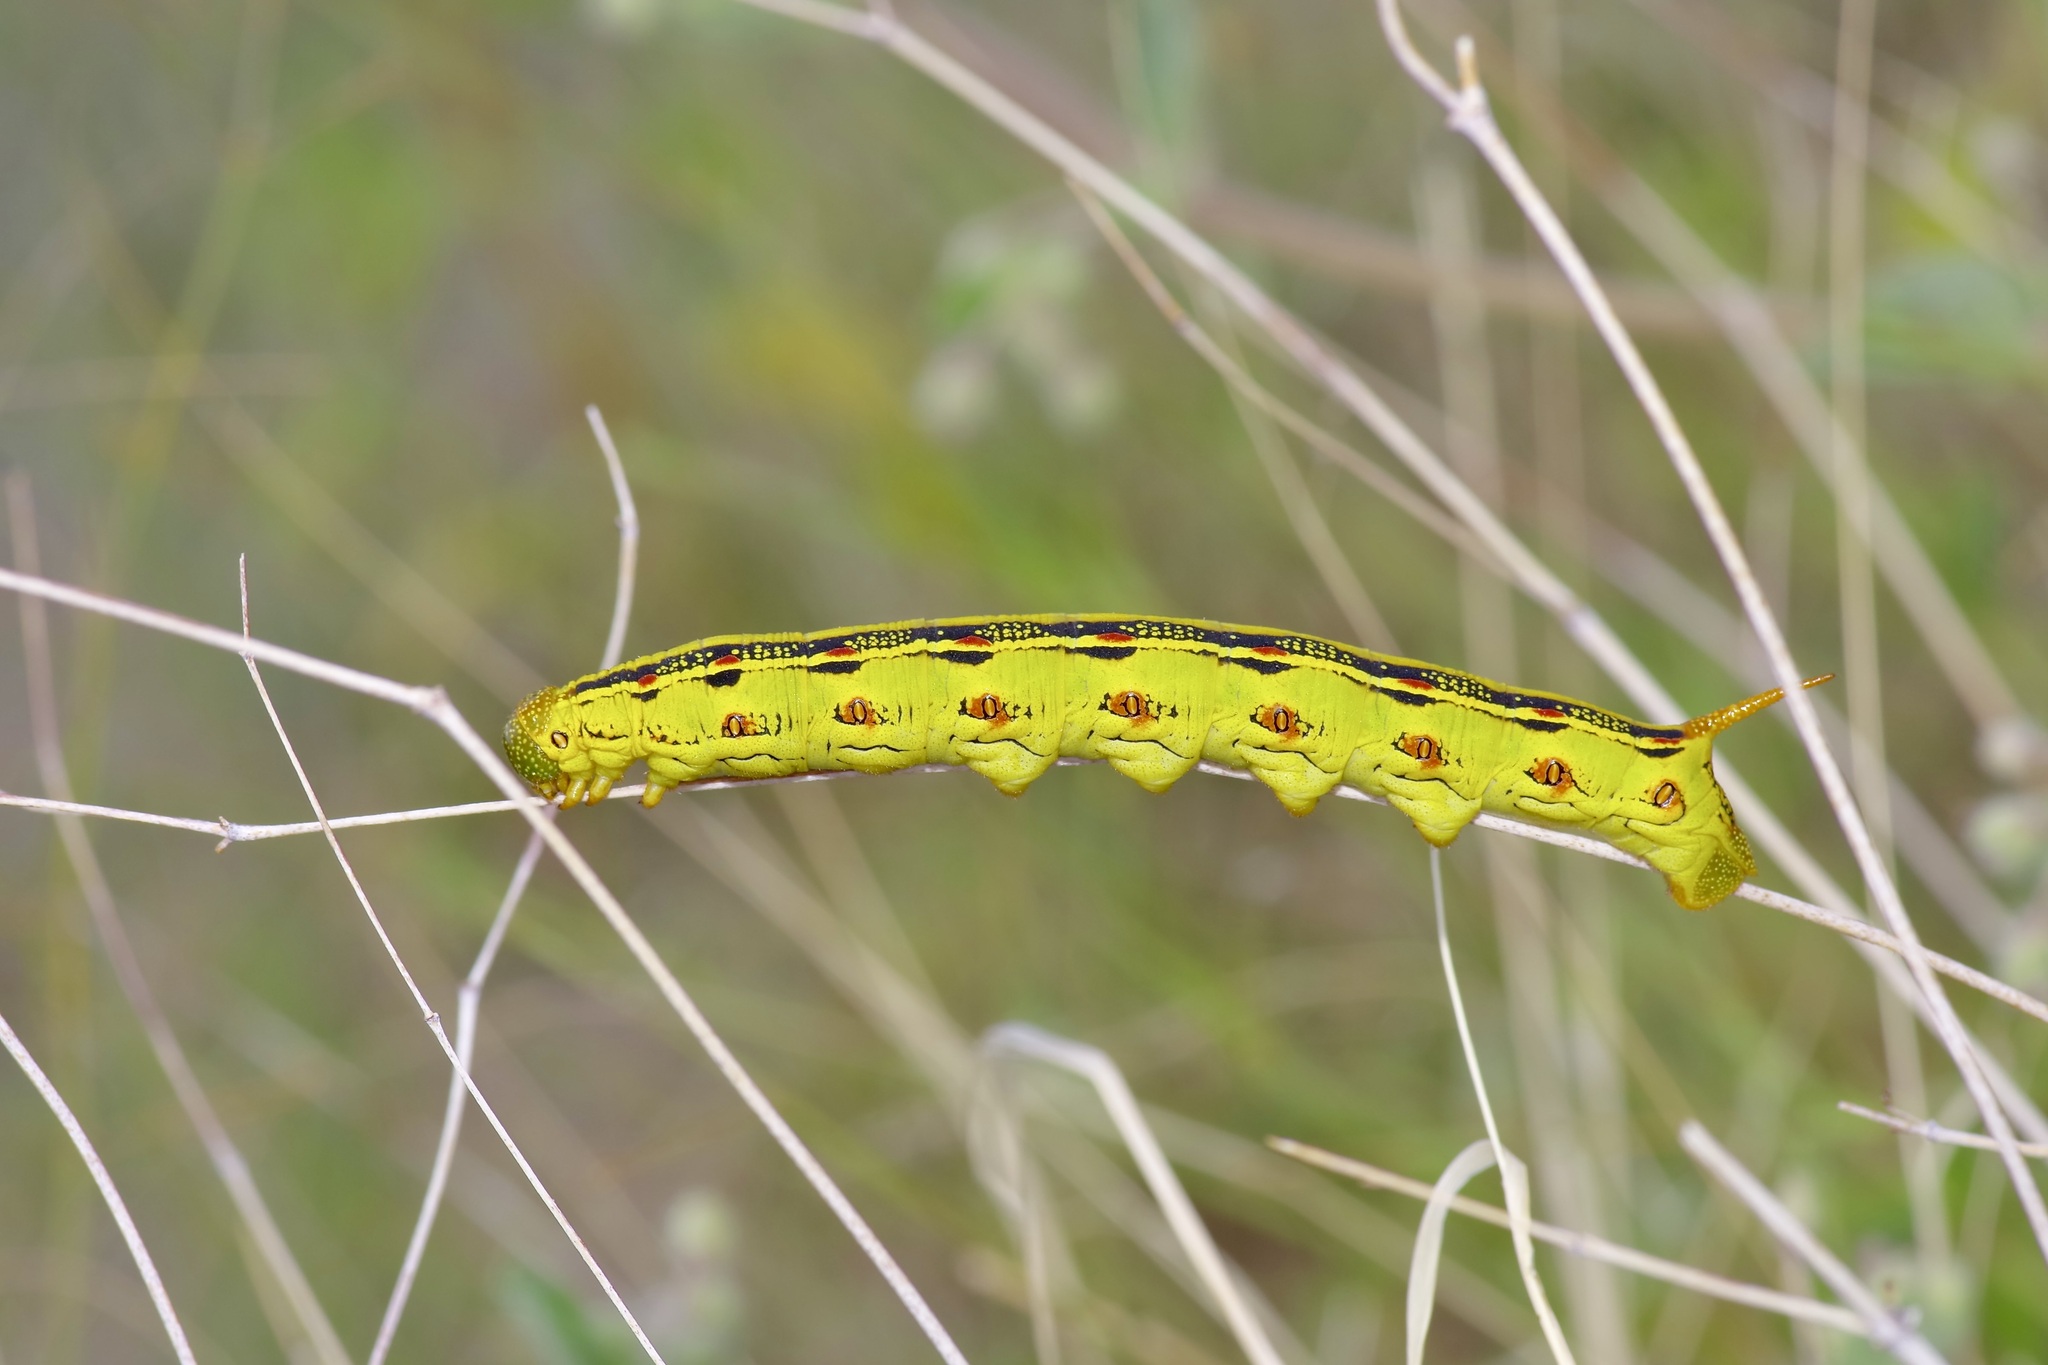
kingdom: Animalia
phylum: Arthropoda
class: Insecta
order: Lepidoptera
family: Sphingidae
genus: Hyles
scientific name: Hyles lineata
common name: White-lined sphinx
